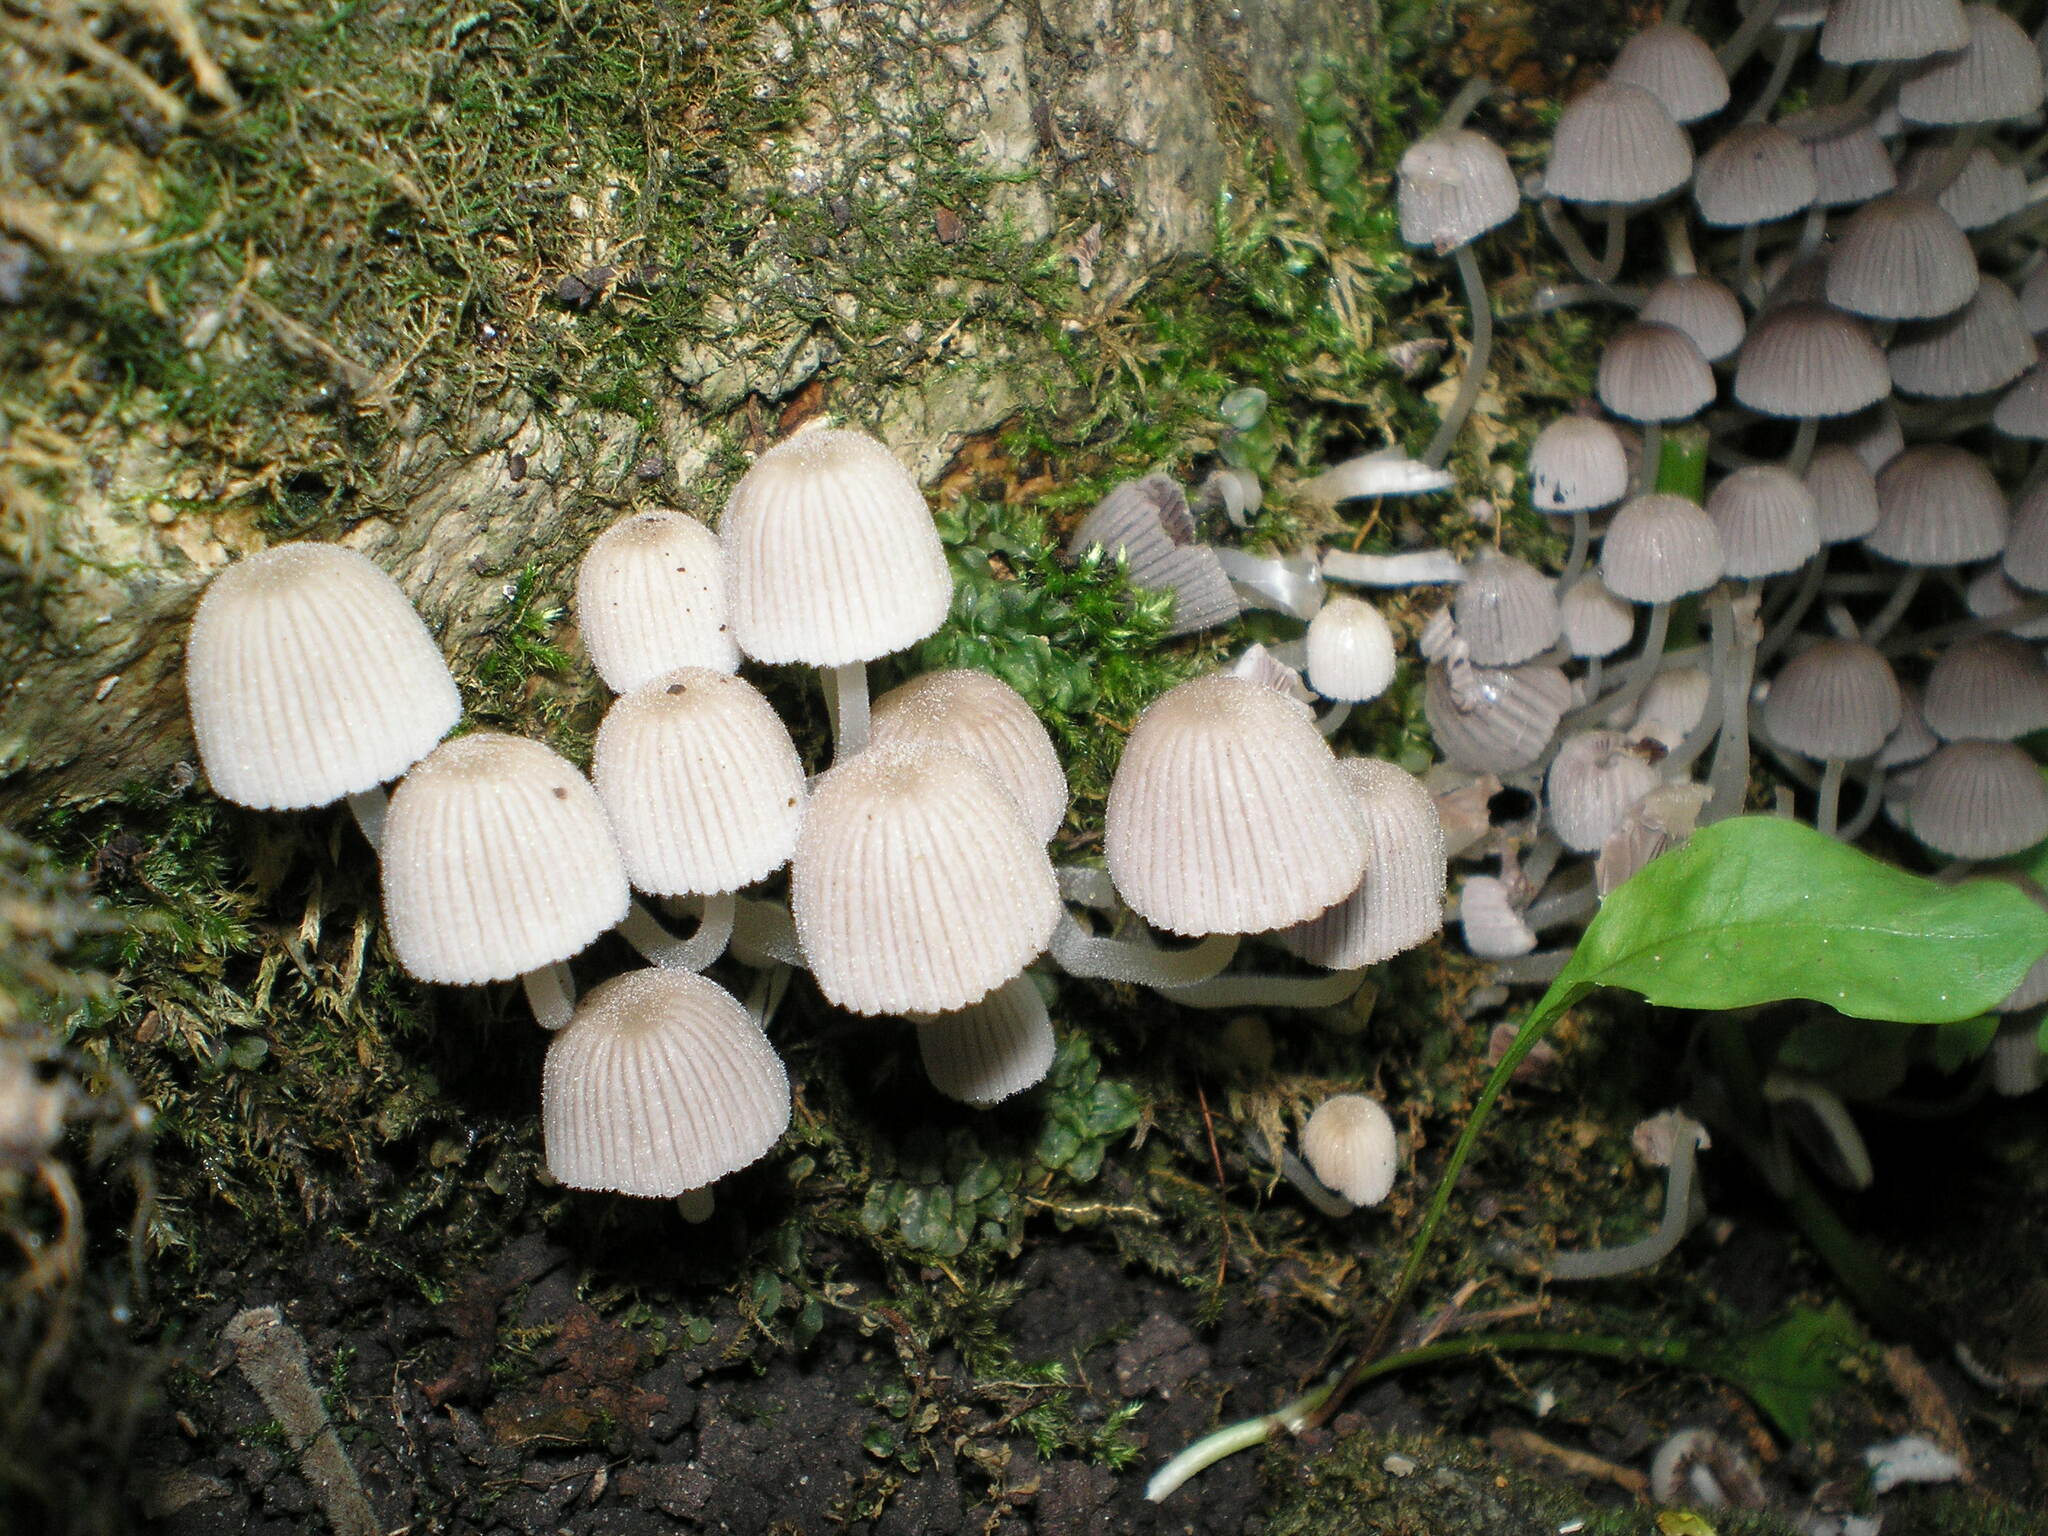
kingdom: Fungi
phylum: Basidiomycota
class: Agaricomycetes
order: Agaricales
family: Psathyrellaceae
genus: Coprinellus
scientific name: Coprinellus disseminatus
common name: Fairies' bonnets
